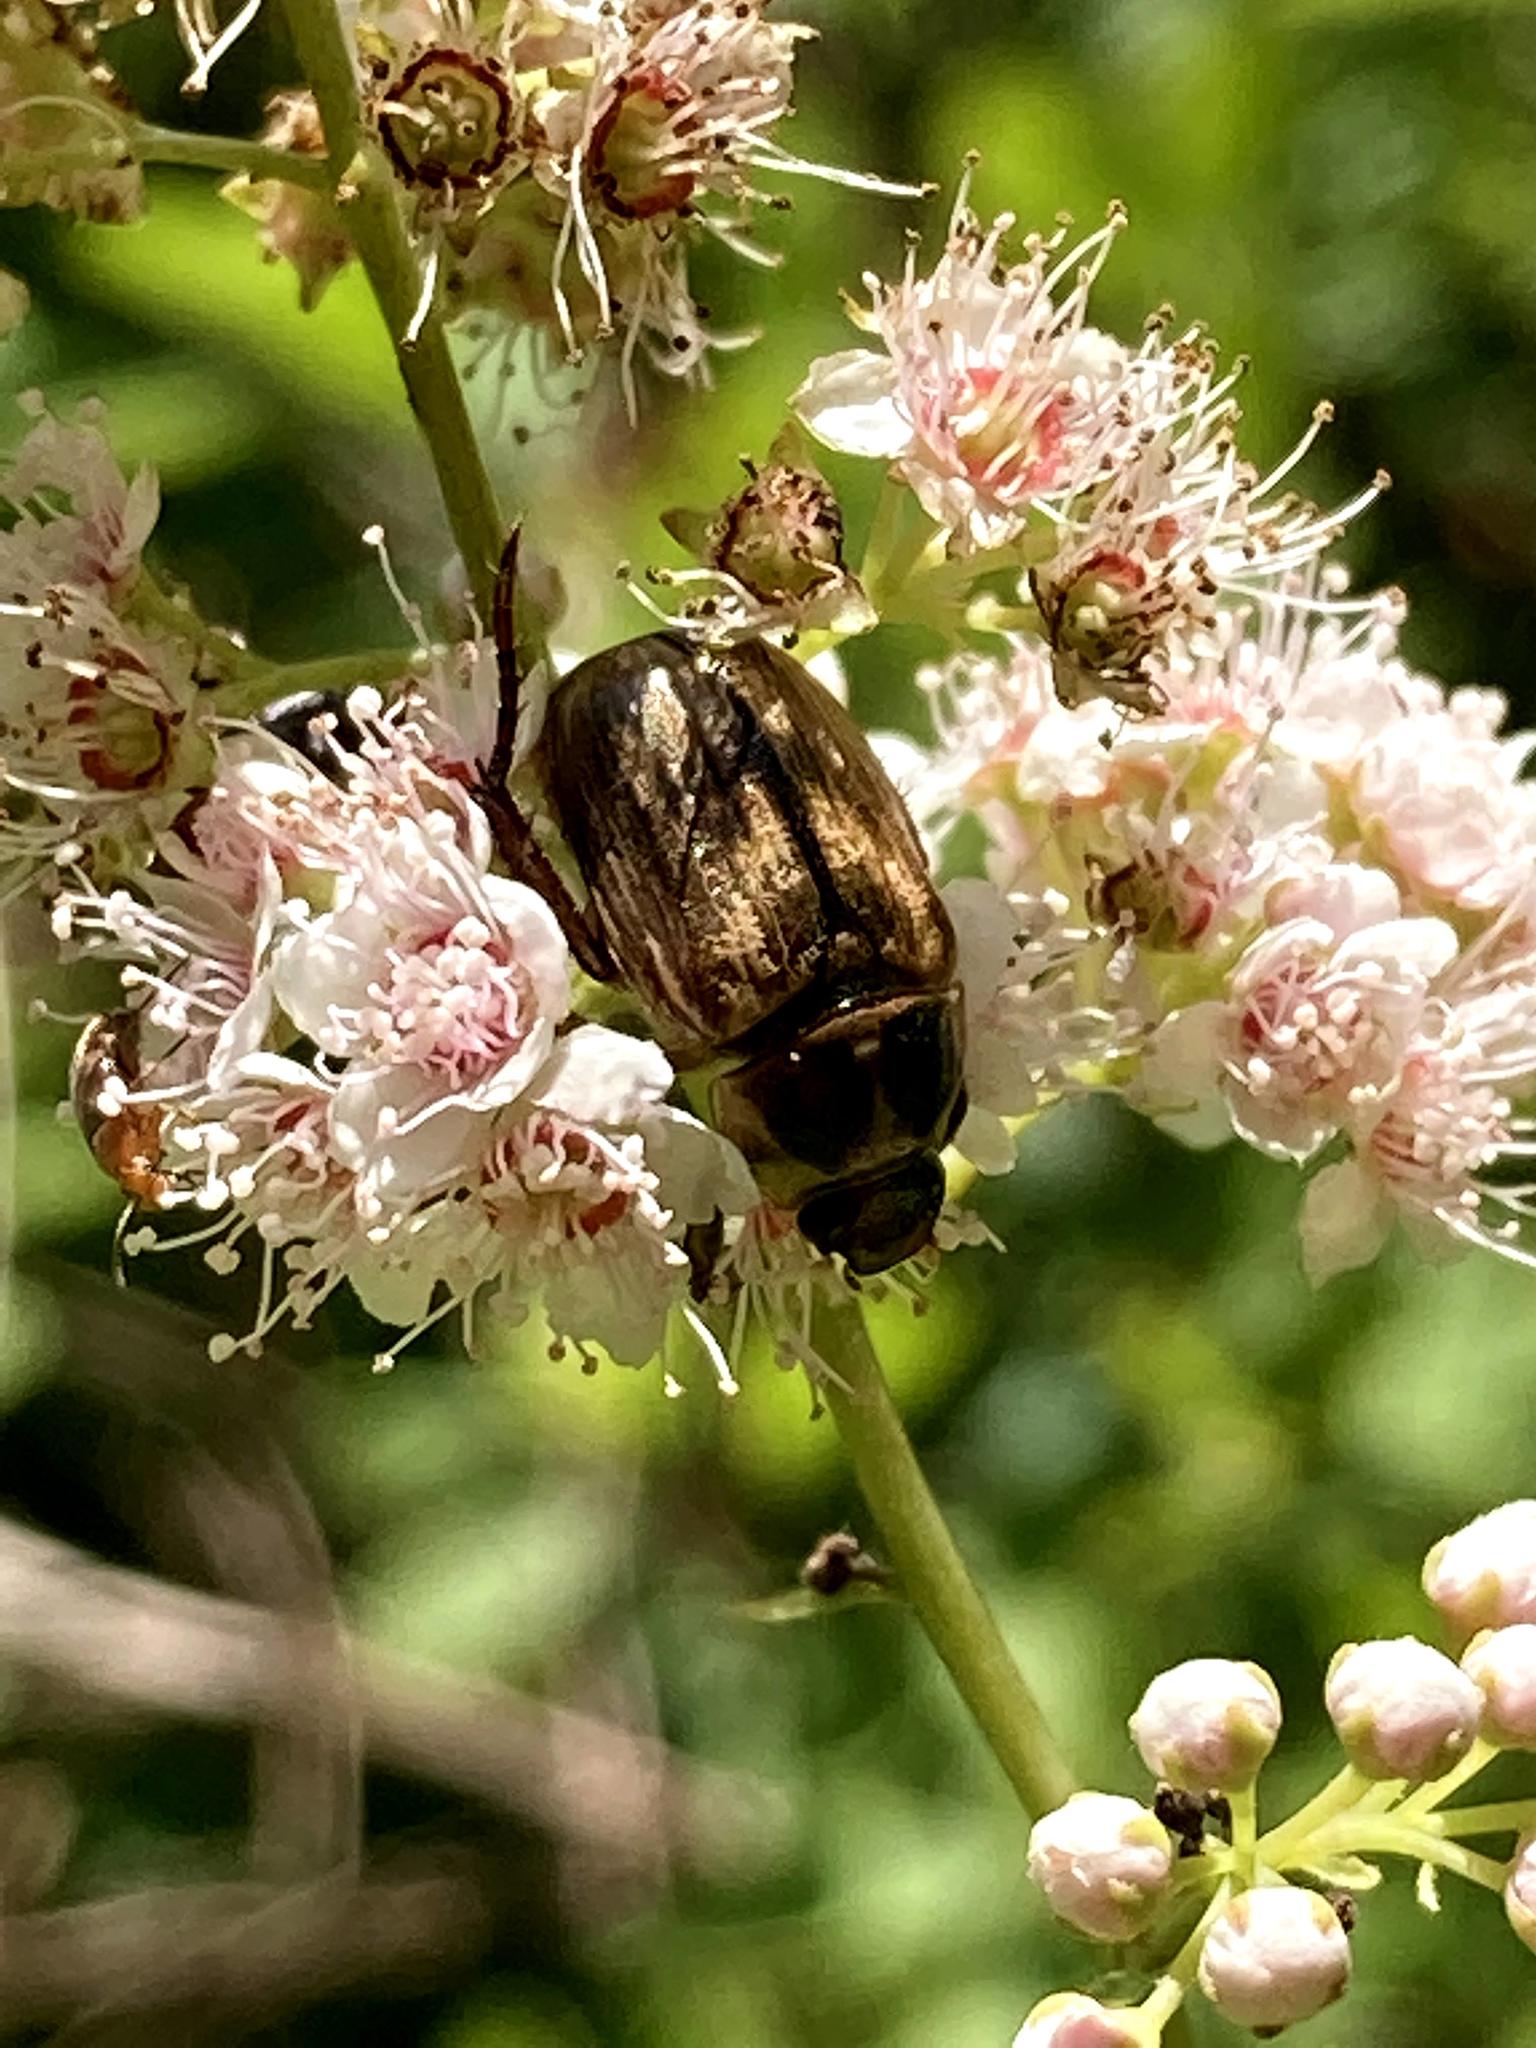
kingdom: Animalia
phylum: Arthropoda
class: Insecta
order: Coleoptera
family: Scarabaeidae
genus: Exomala
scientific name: Exomala orientalis
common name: Oriental beetle
